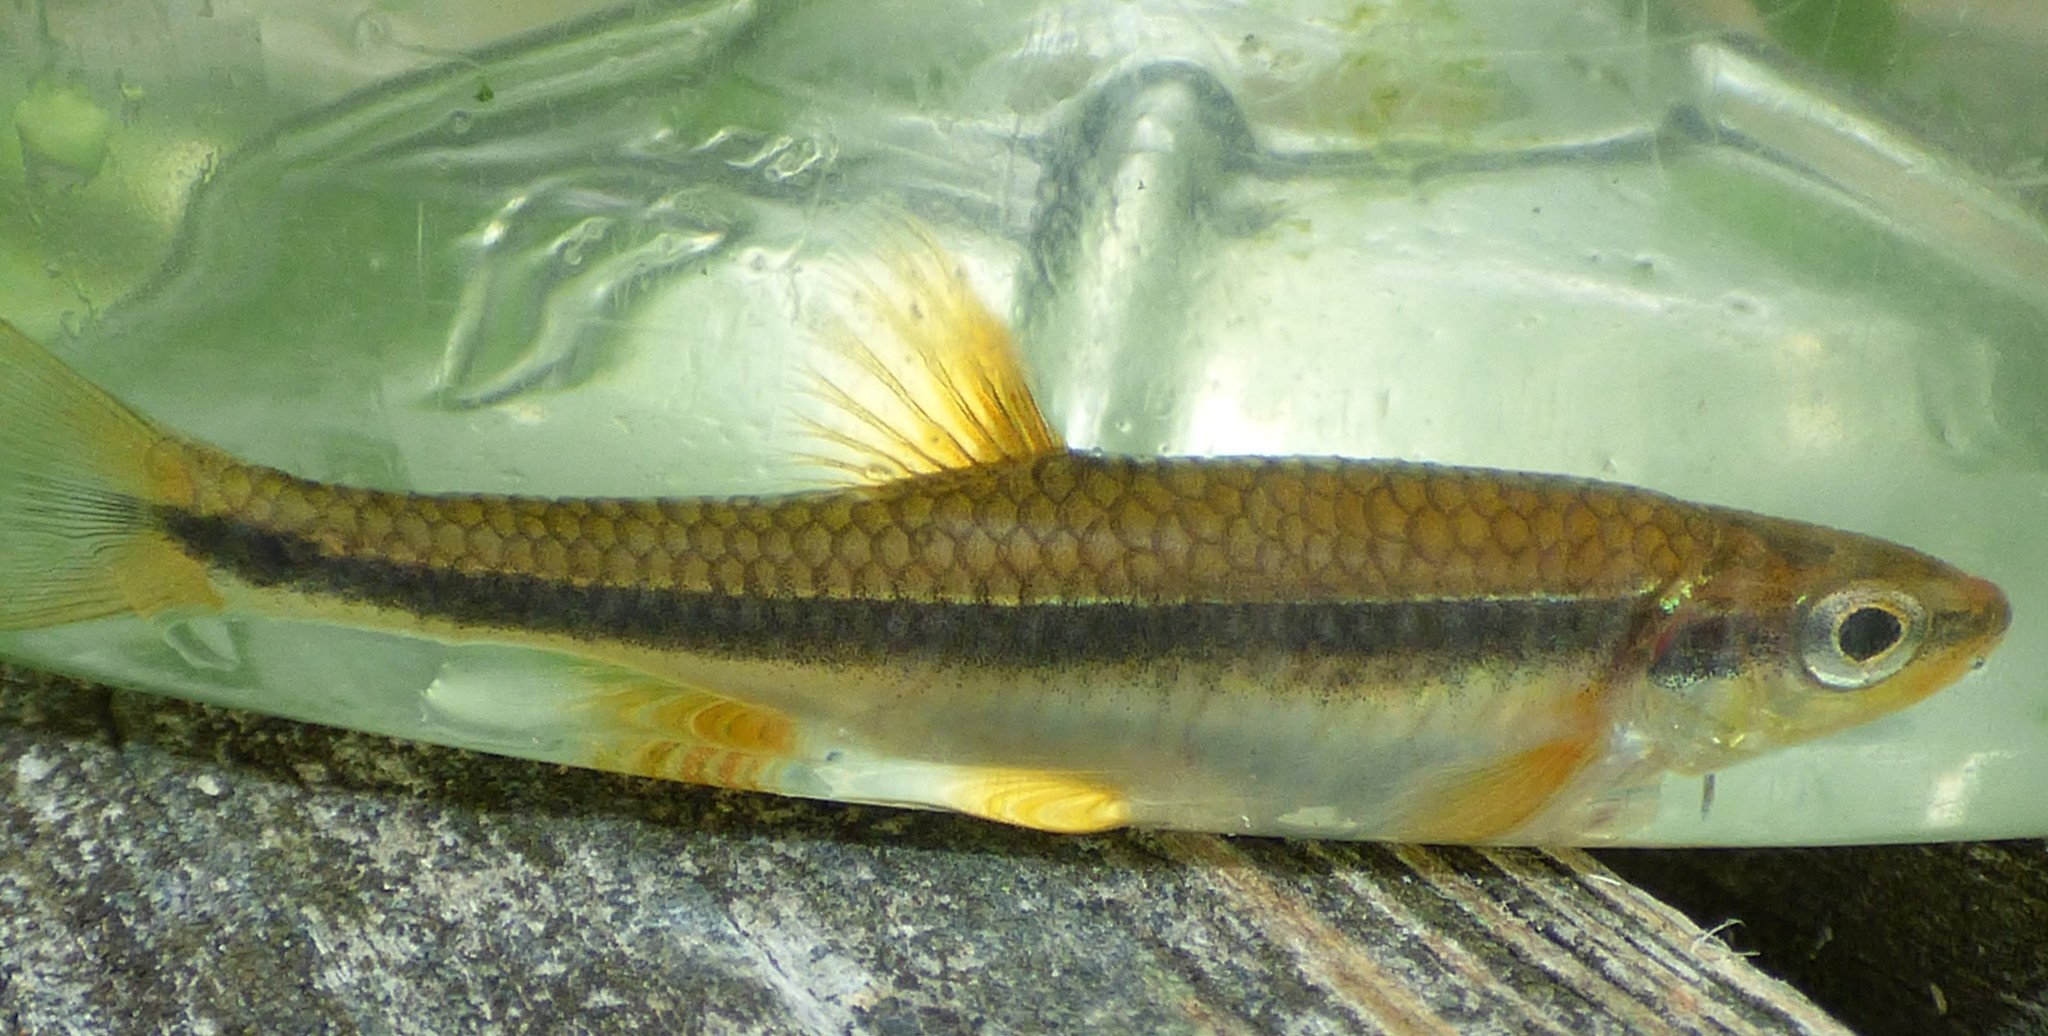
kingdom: Animalia
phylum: Chordata
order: Cypriniformes
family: Cyprinidae
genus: Notropis
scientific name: Notropis lutipinnis
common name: Yellowfin shiner
